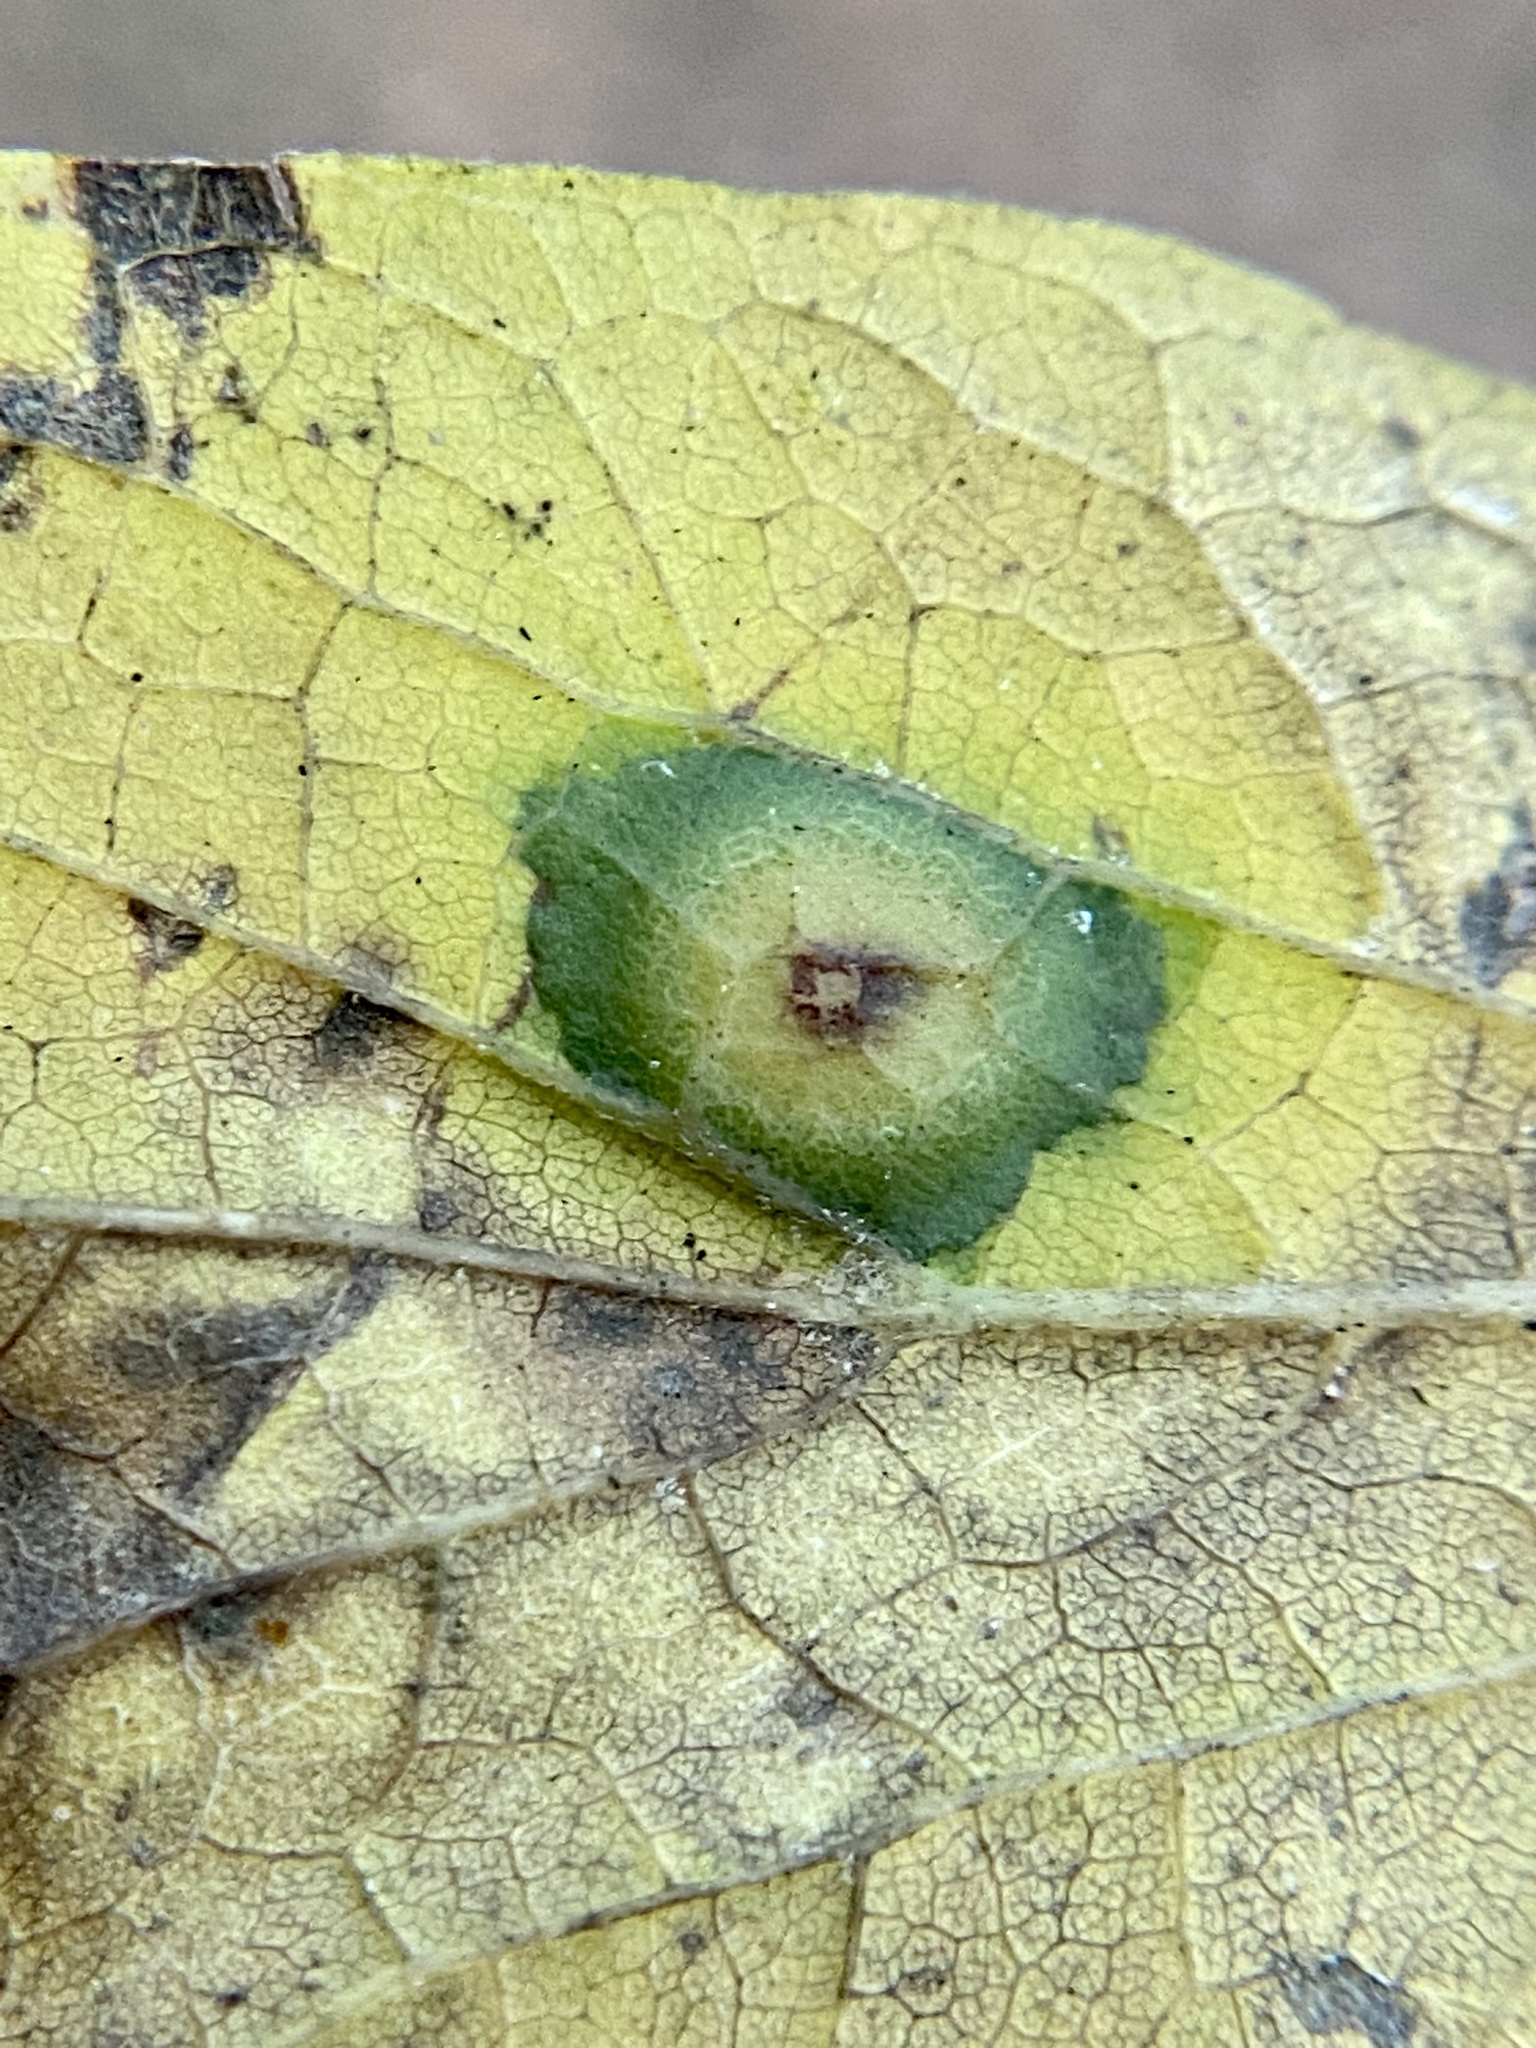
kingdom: Animalia
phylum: Arthropoda
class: Insecta
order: Hemiptera
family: Aphalaridae
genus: Pachypsylla
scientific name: Pachypsylla celtidisvesicula
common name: Hackberry blister gall psyllid
